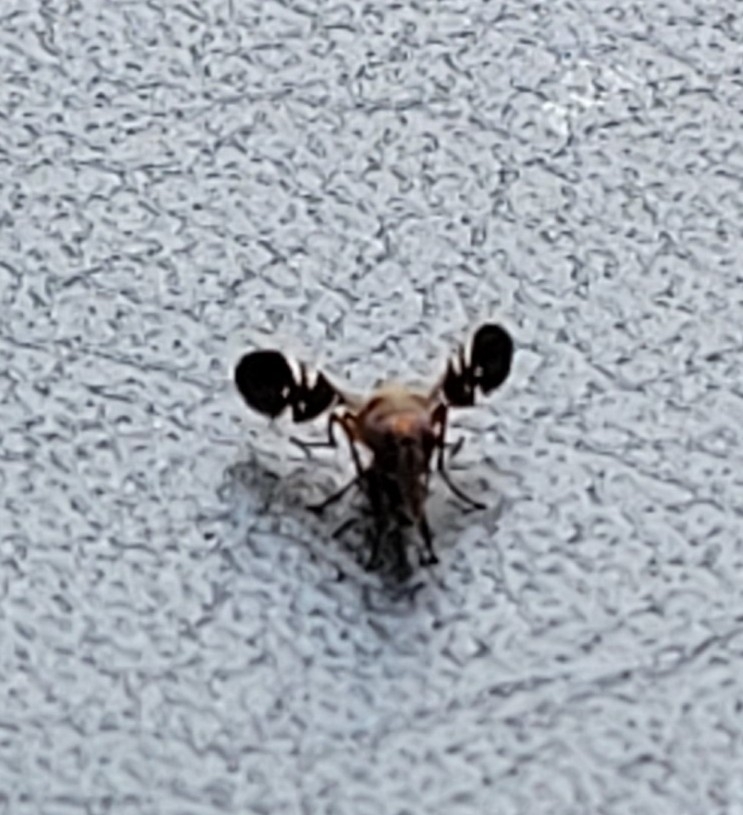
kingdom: Animalia
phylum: Arthropoda
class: Insecta
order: Diptera
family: Ulidiidae
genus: Delphinia
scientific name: Delphinia picta
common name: Common picture-winged fly
